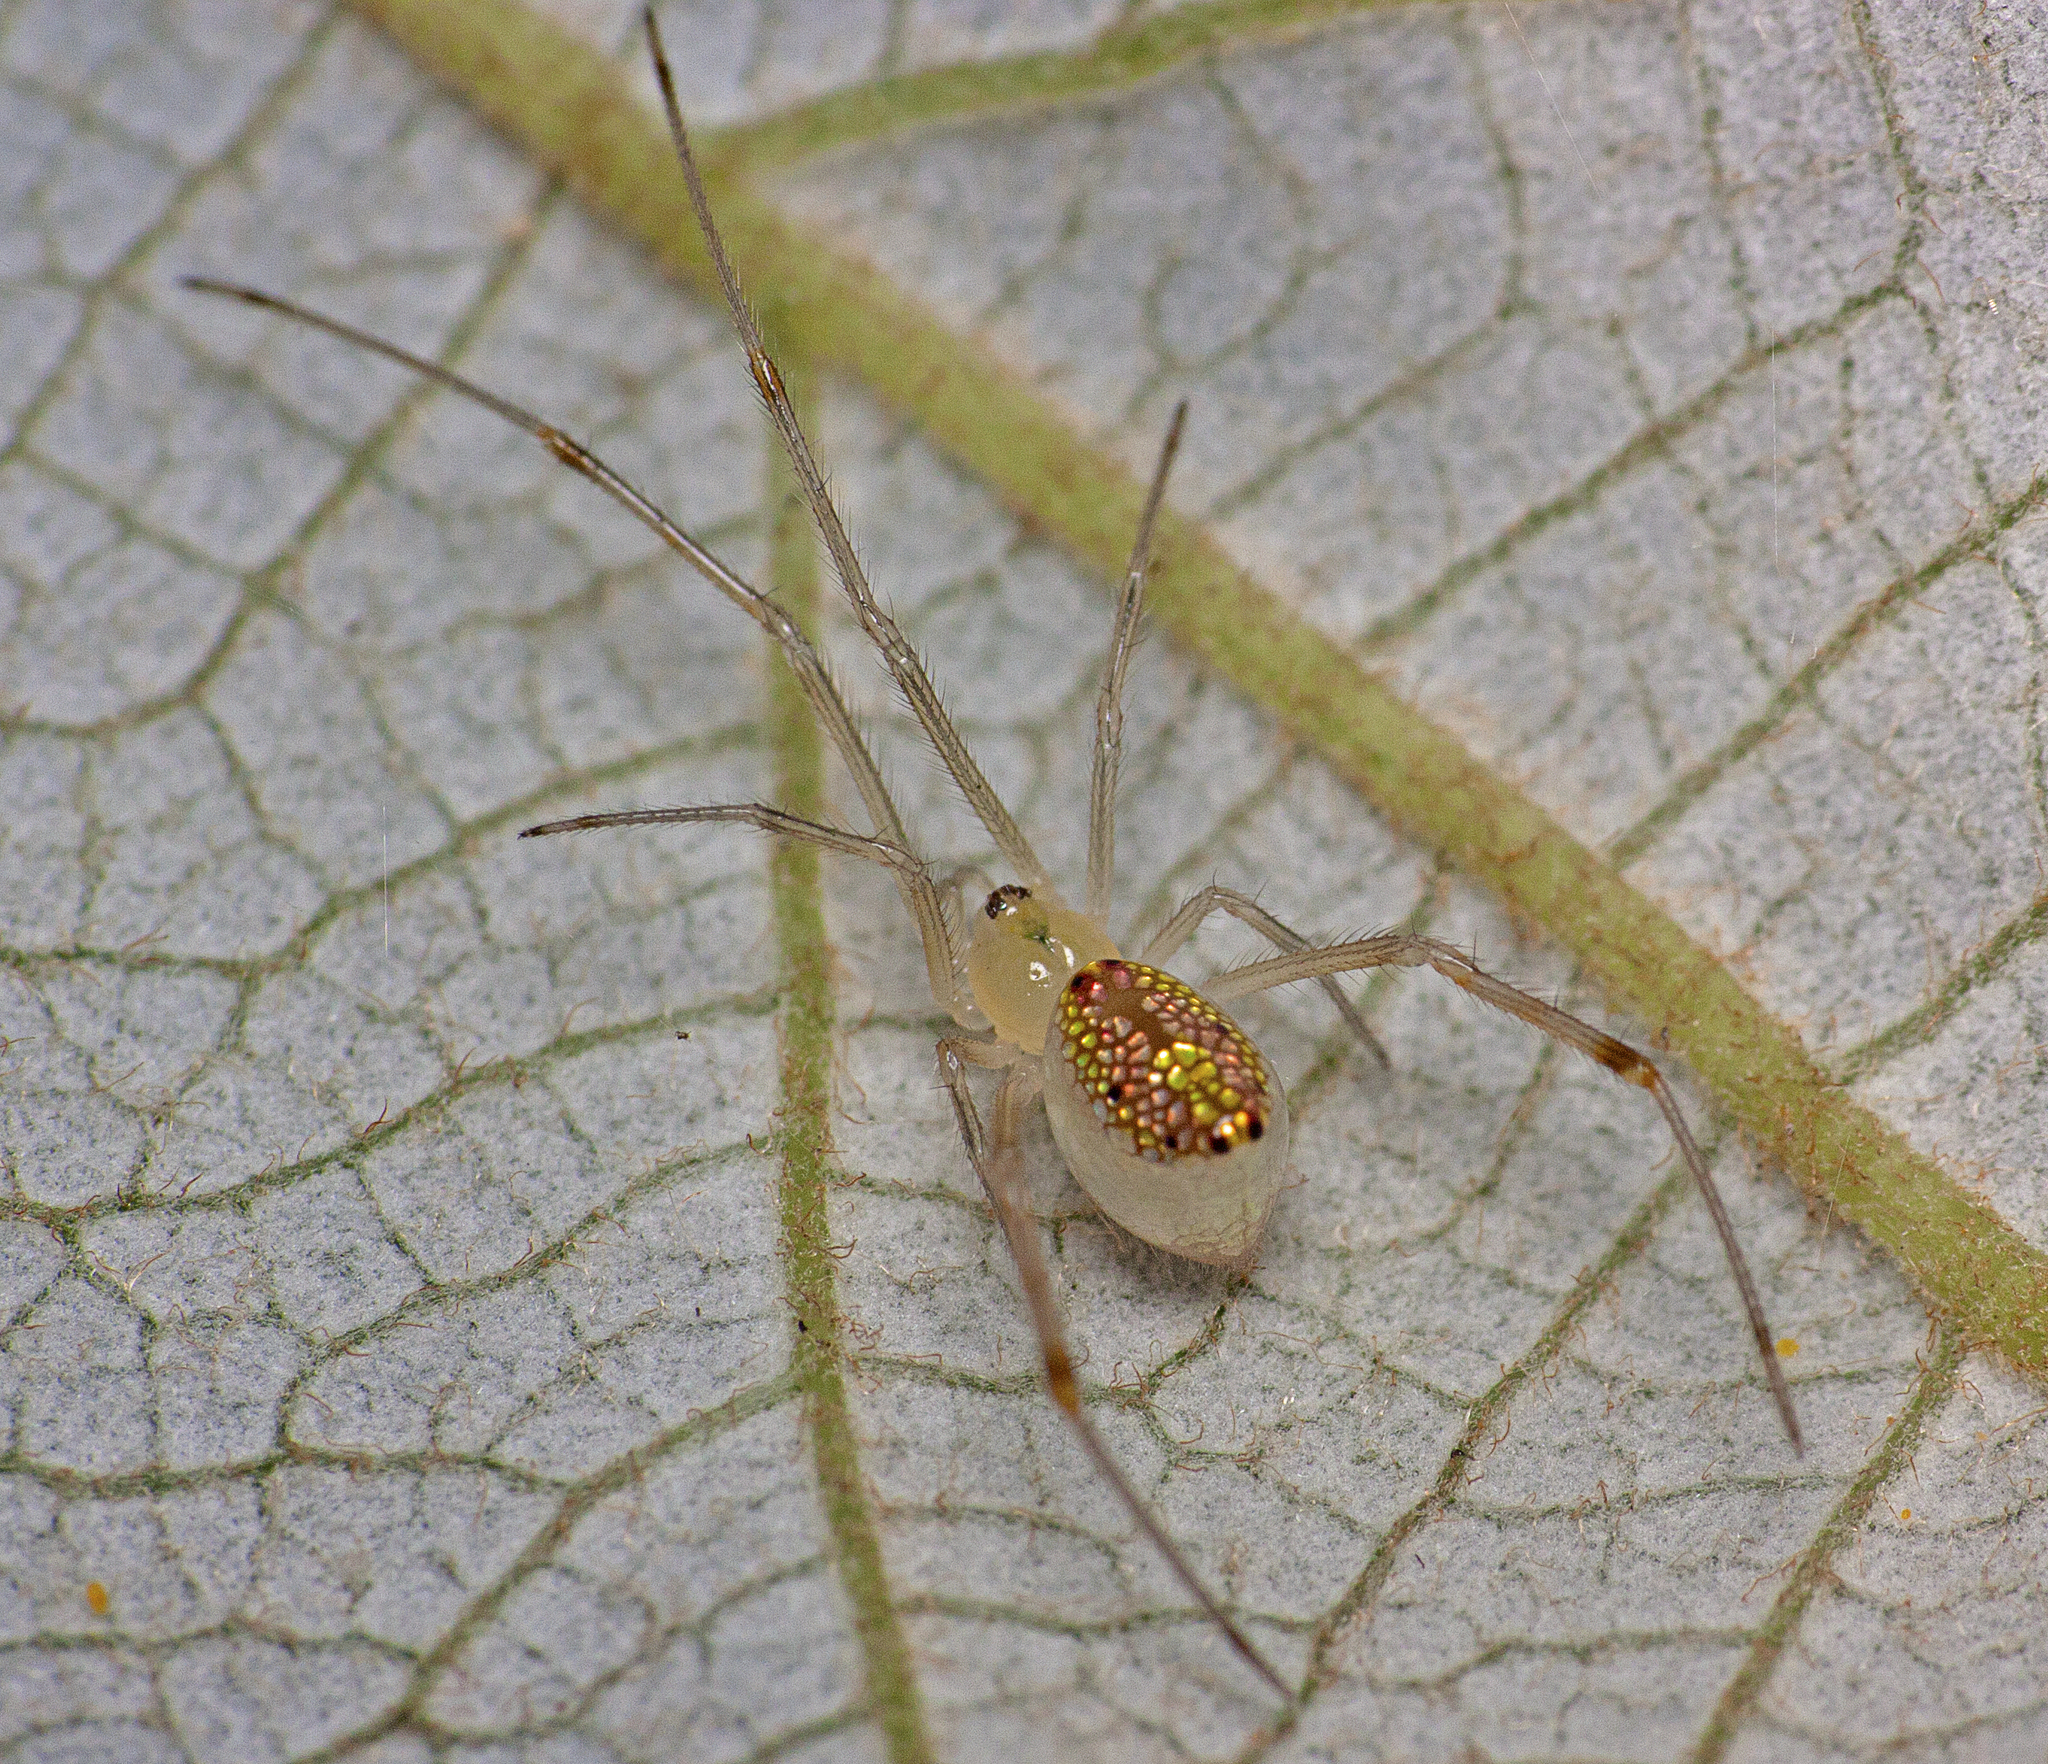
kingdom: Animalia
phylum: Arthropoda
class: Arachnida
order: Araneae
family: Theridiidae
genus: Thwaitesia
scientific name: Thwaitesia nigronodosa
